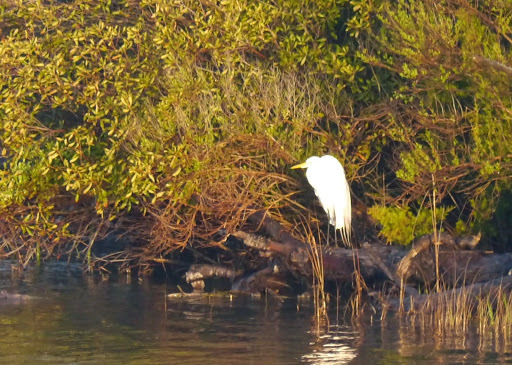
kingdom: Animalia
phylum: Chordata
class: Aves
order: Pelecaniformes
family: Ardeidae
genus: Ardea
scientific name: Ardea alba
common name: Great egret
